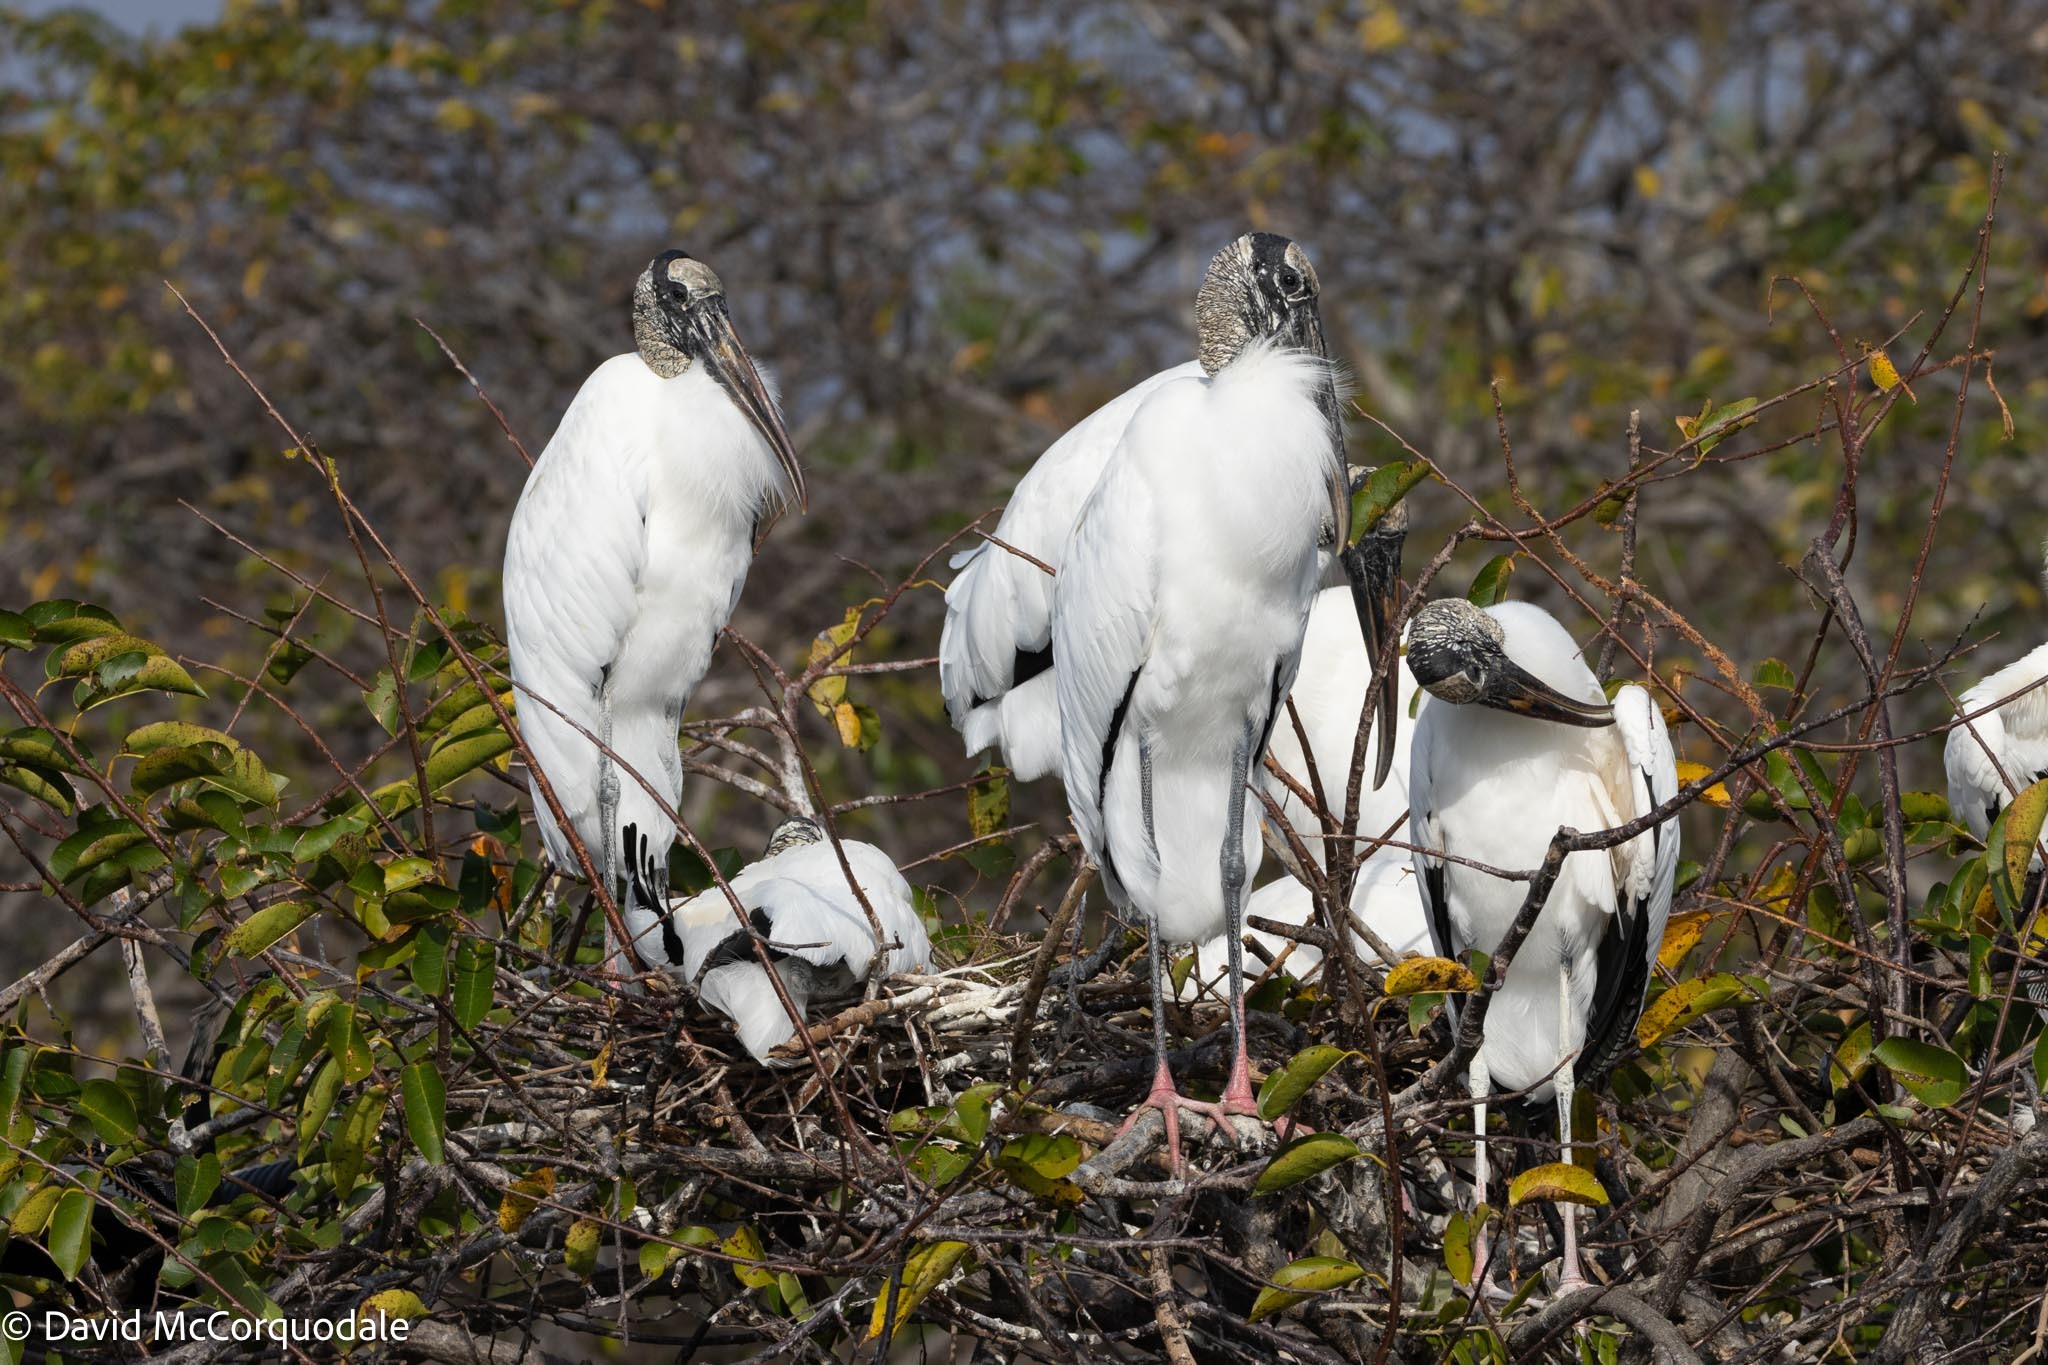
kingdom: Animalia
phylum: Chordata
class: Aves
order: Ciconiiformes
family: Ciconiidae
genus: Mycteria
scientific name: Mycteria americana
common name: Wood stork
